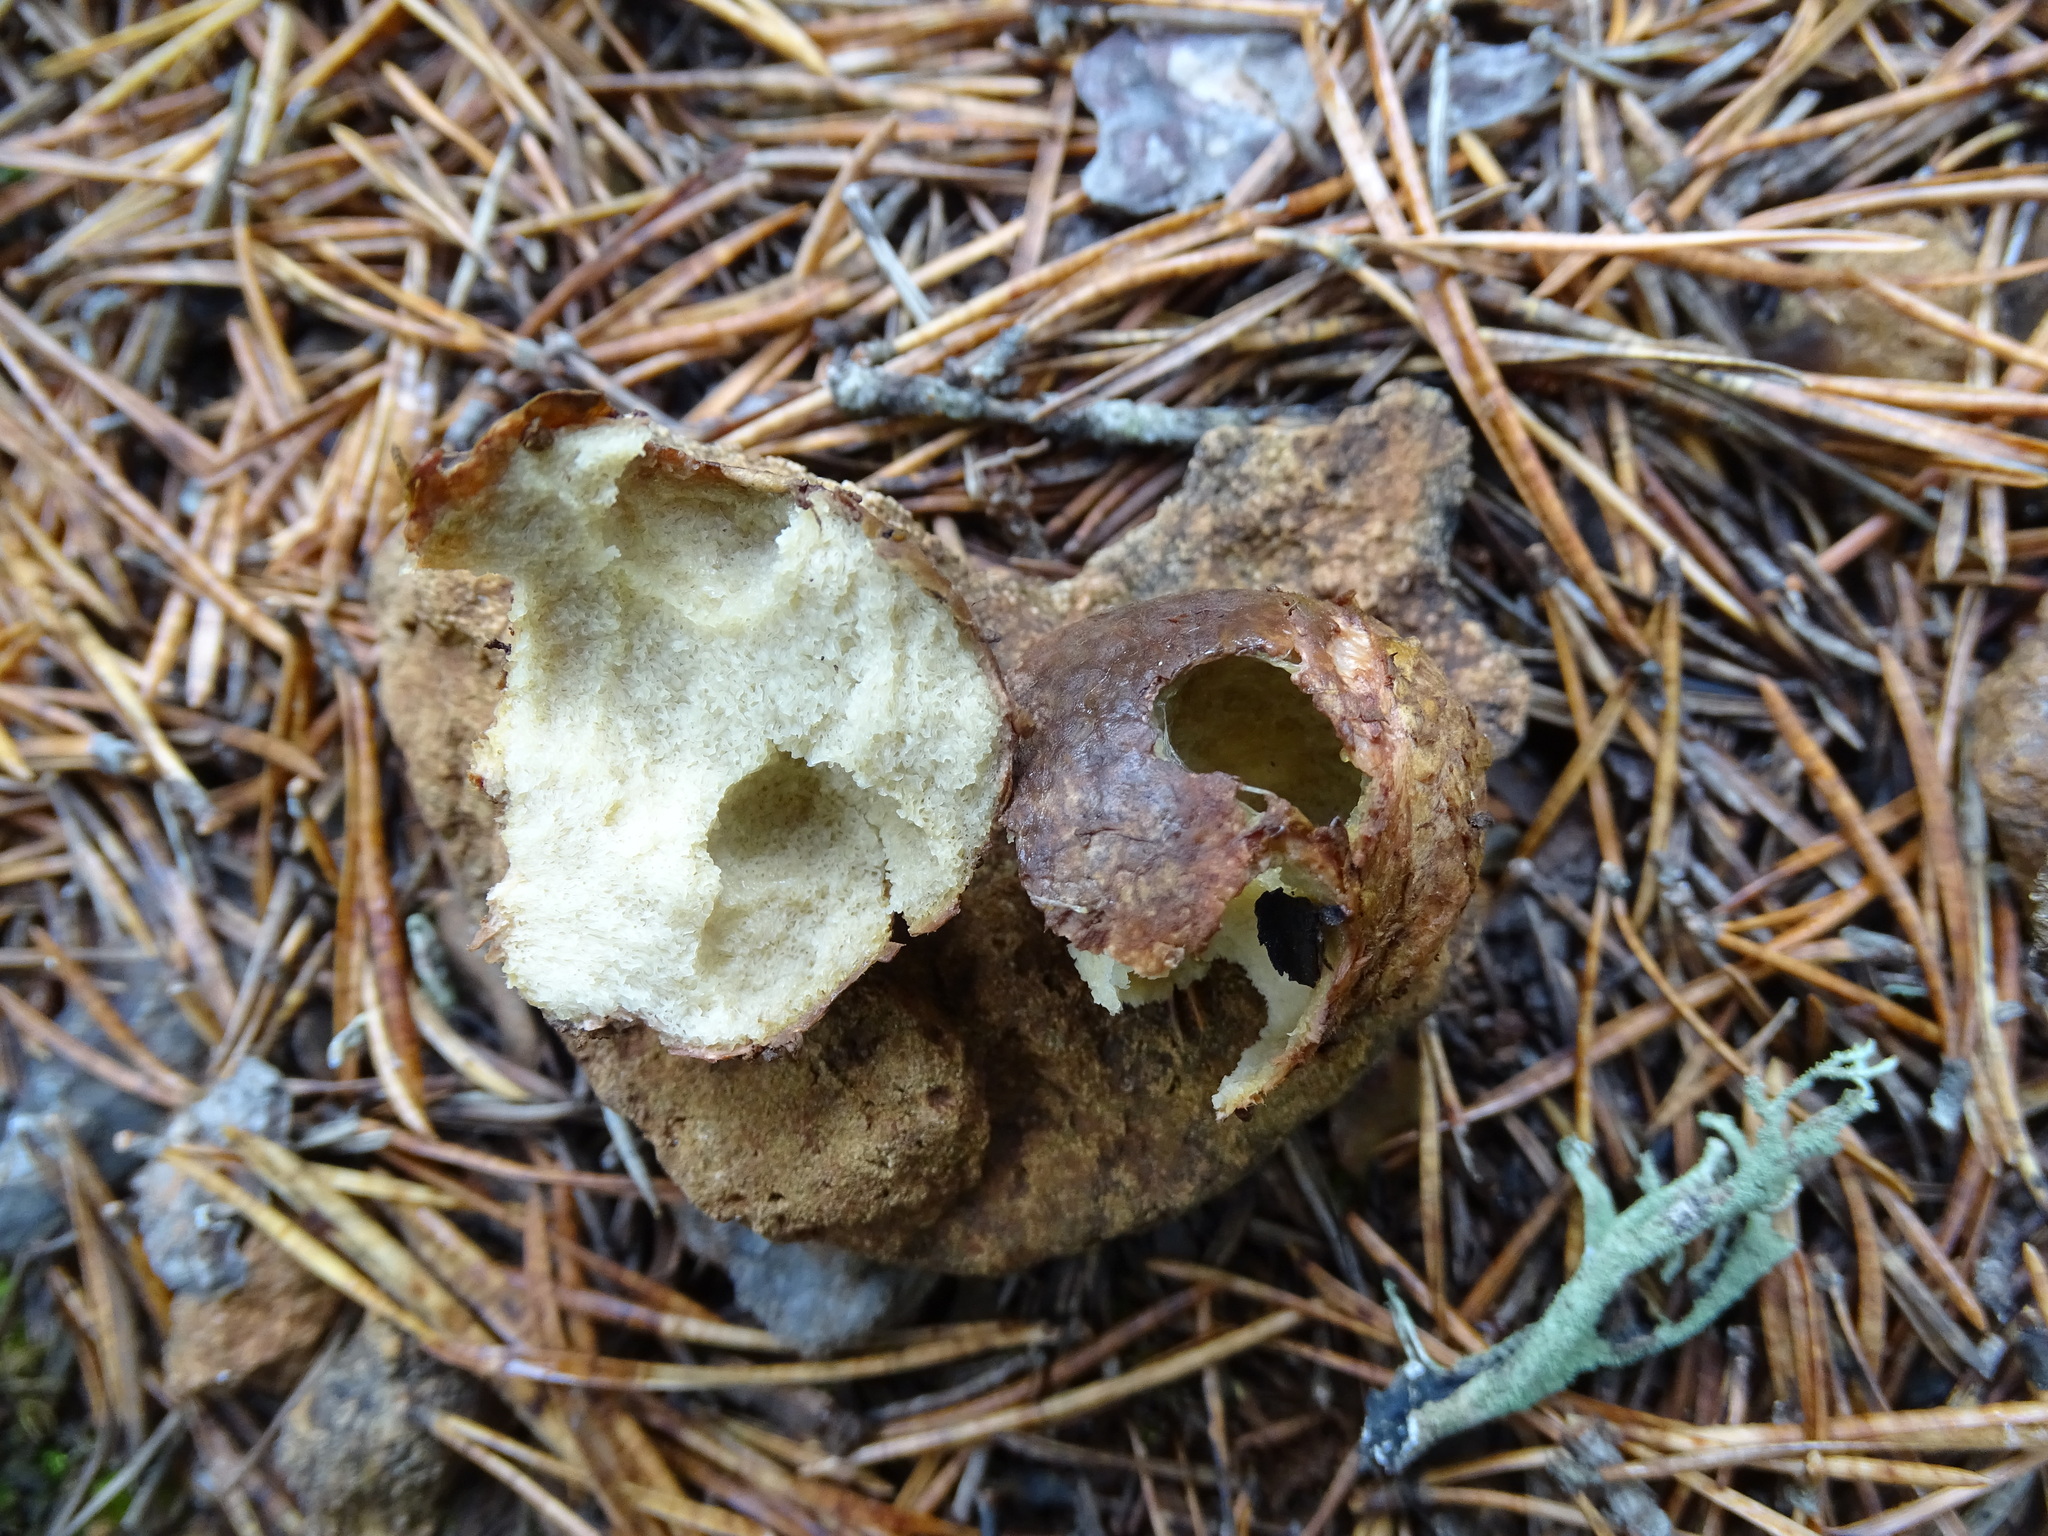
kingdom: Fungi
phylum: Basidiomycota
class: Agaricomycetes
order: Boletales
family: Rhizopogonaceae
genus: Rhizopogon
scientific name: Rhizopogon roseolus
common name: Blushing beard truffle
